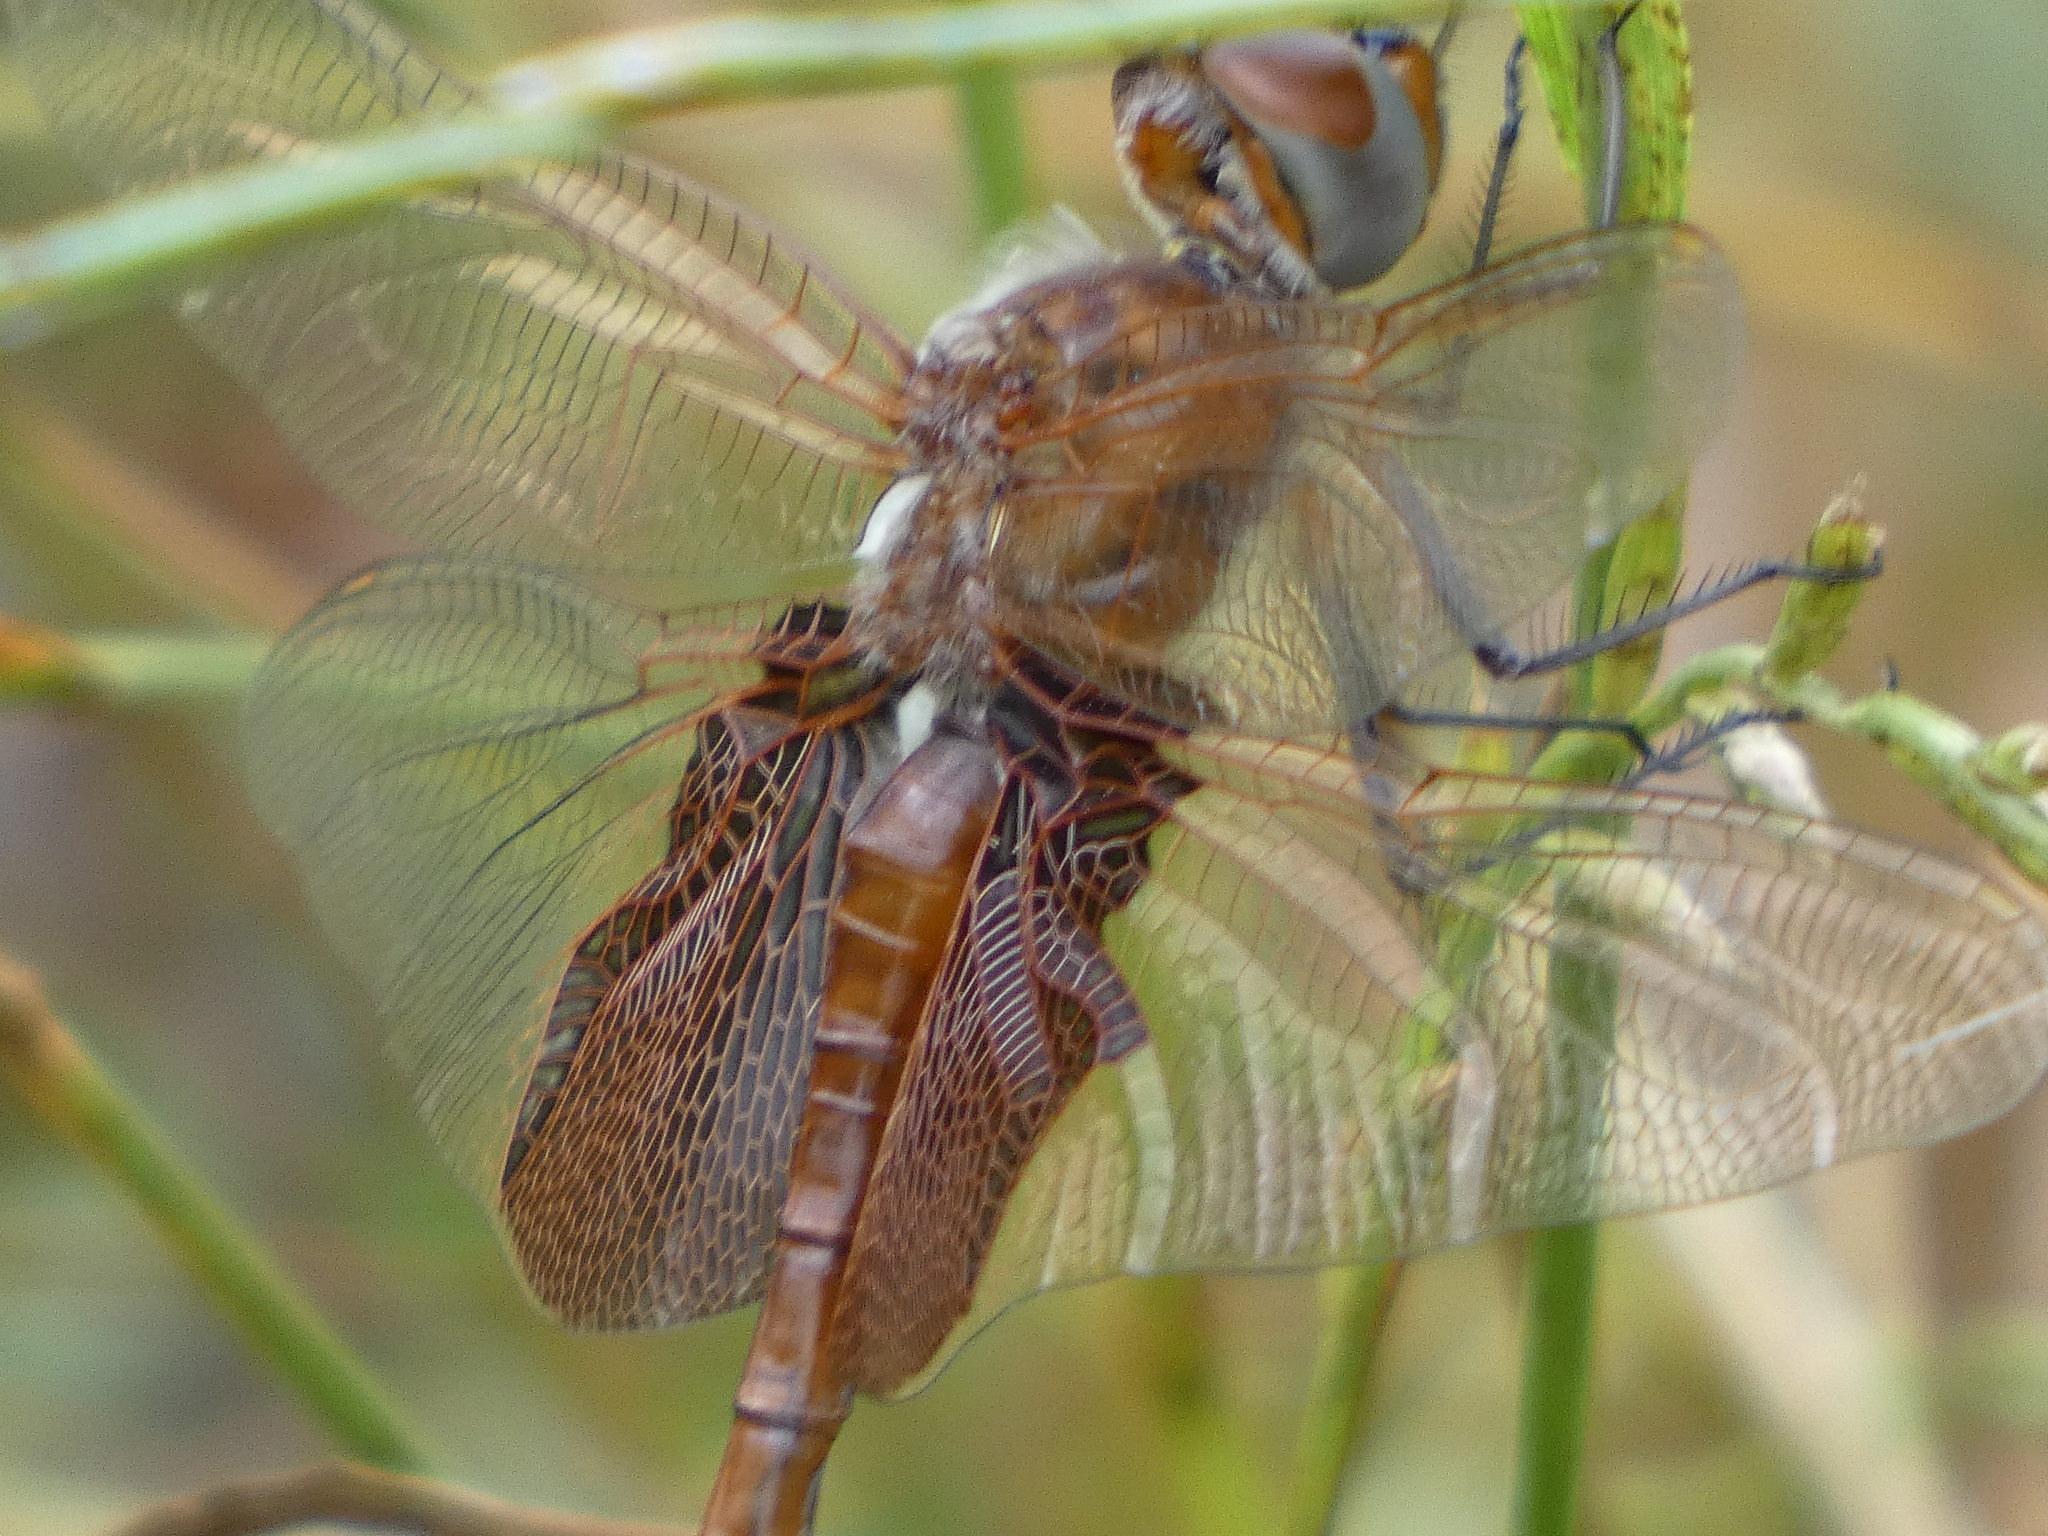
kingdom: Animalia
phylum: Arthropoda
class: Insecta
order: Odonata
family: Libellulidae
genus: Tramea
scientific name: Tramea carolina
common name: Carolina saddlebags
